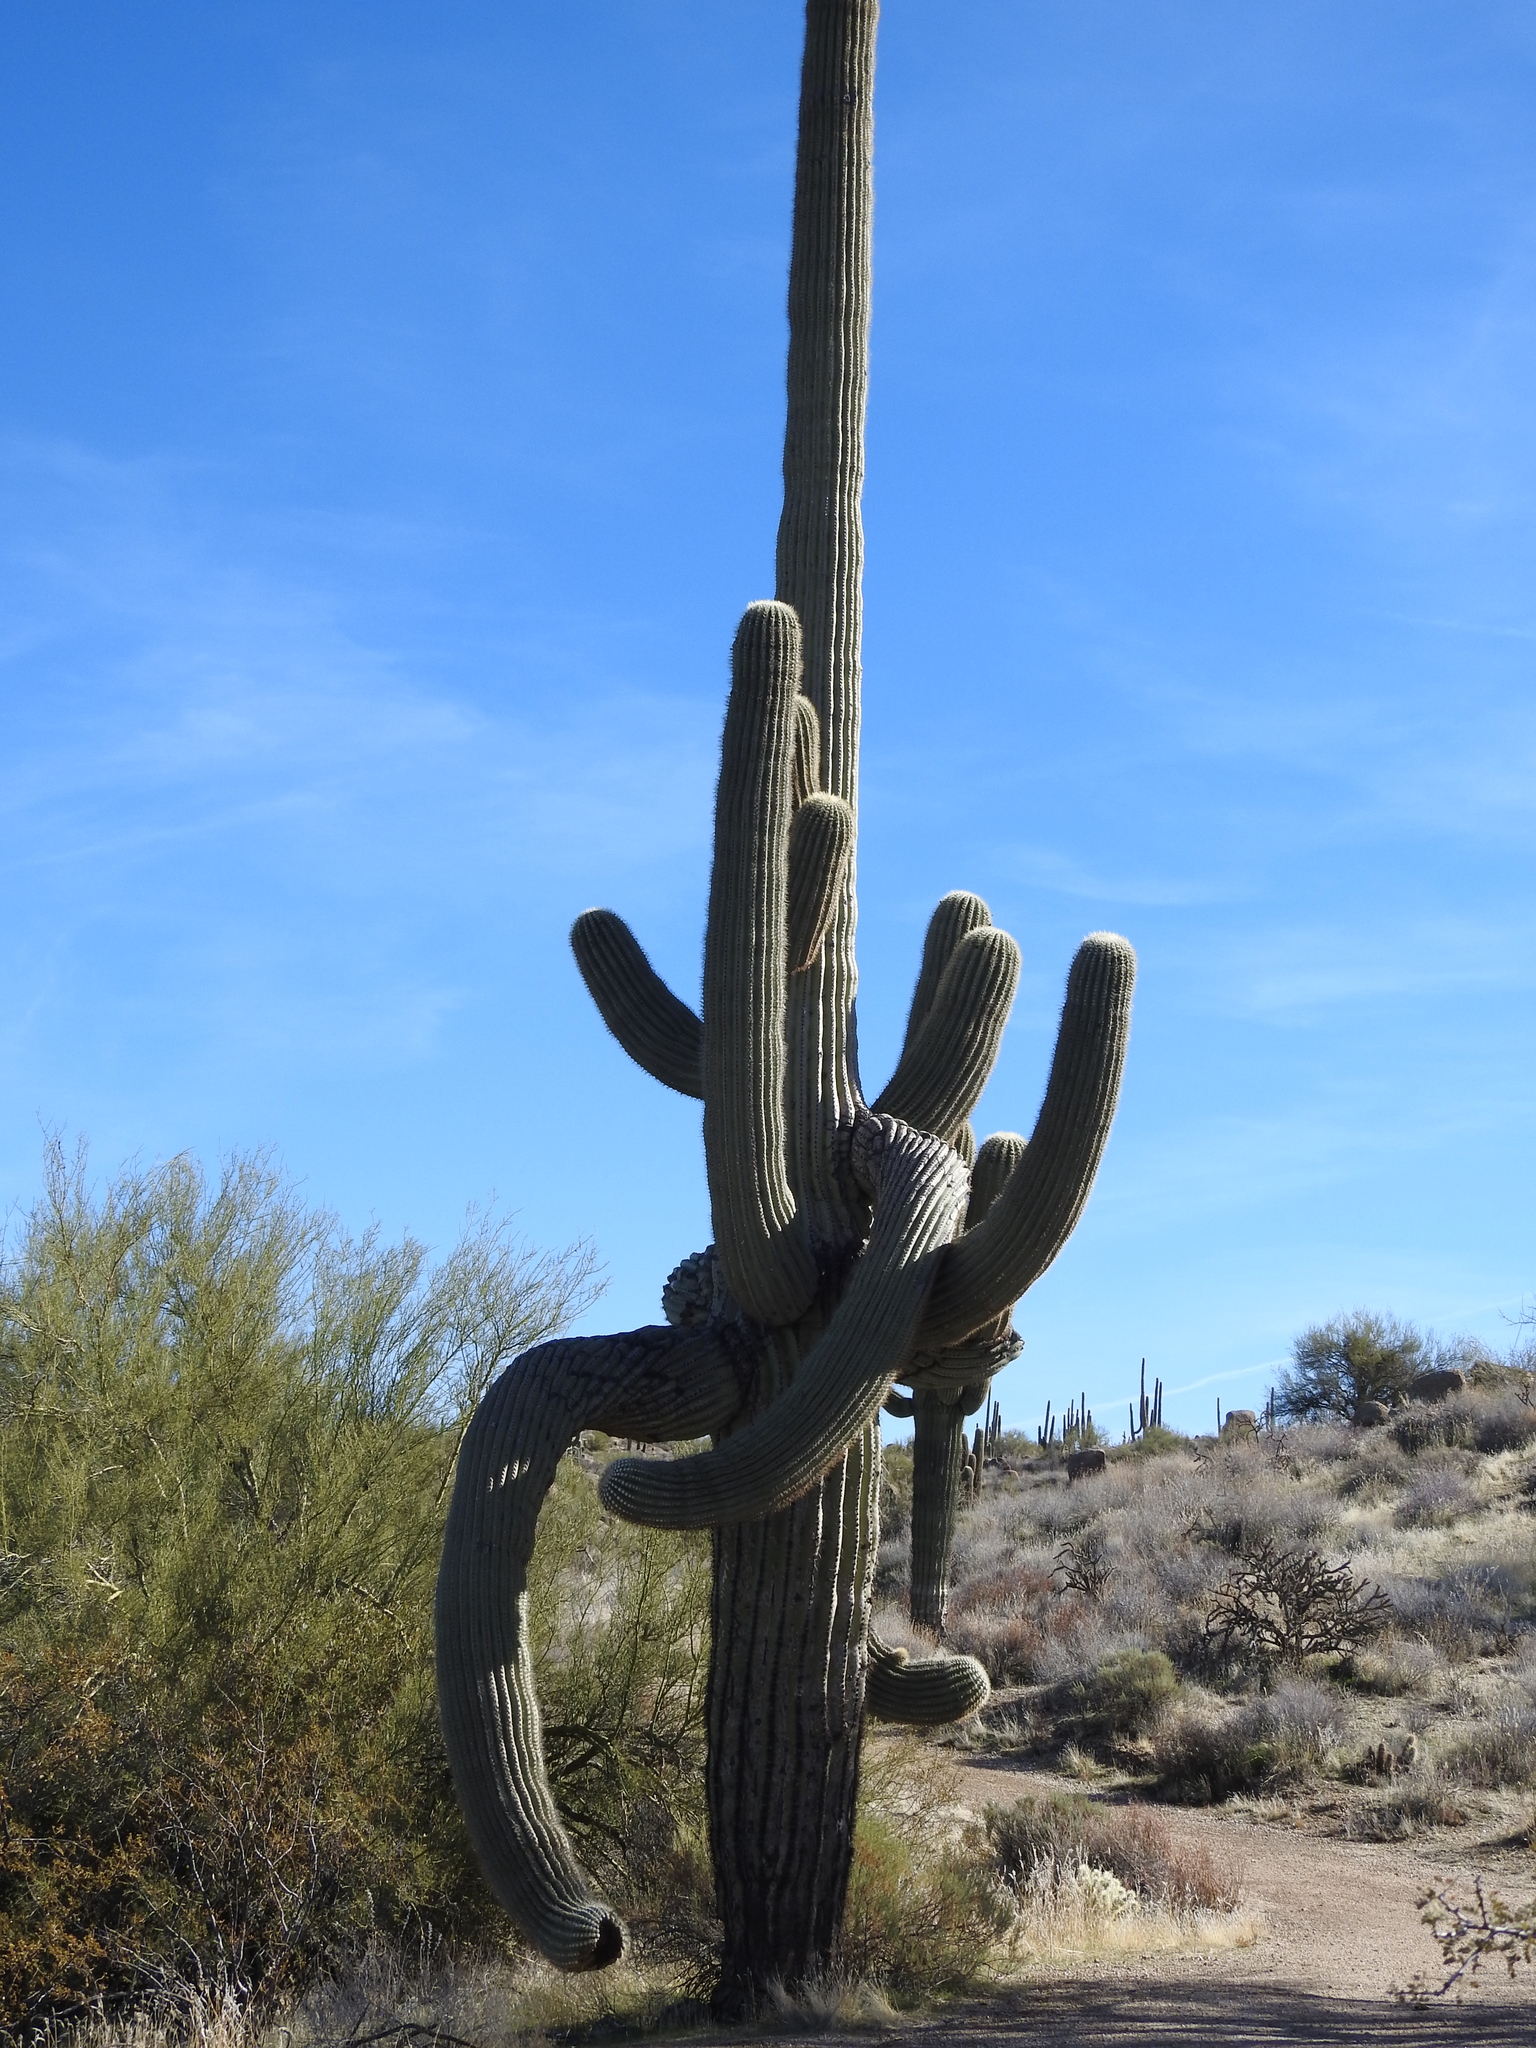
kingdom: Plantae
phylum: Tracheophyta
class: Magnoliopsida
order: Caryophyllales
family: Cactaceae
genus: Carnegiea
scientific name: Carnegiea gigantea
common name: Saguaro
